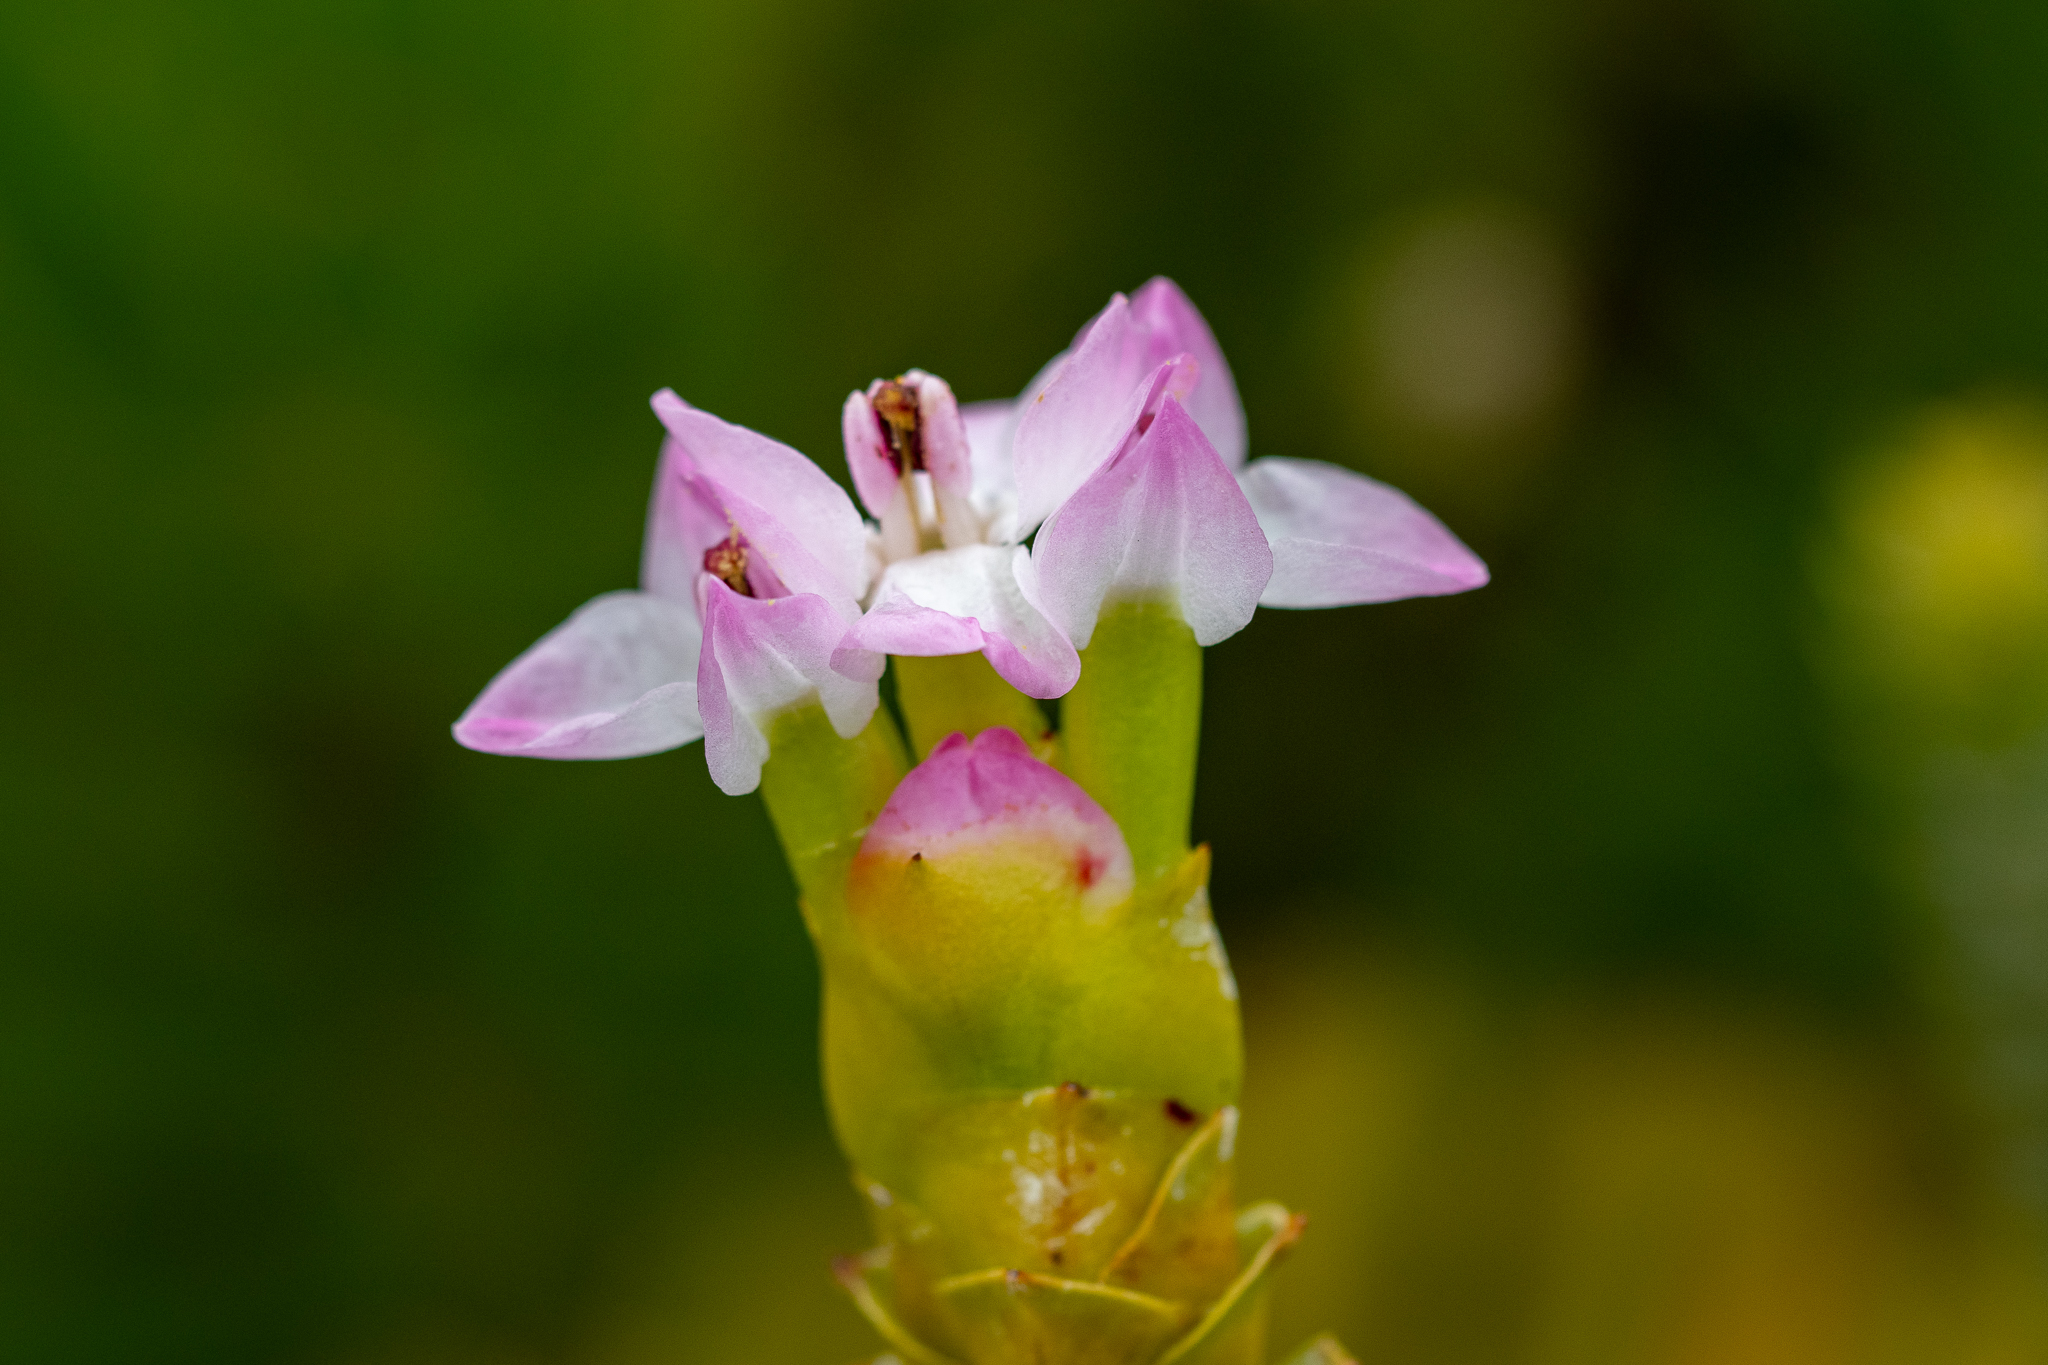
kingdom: Plantae
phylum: Tracheophyta
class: Magnoliopsida
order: Myrtales
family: Penaeaceae
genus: Saltera
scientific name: Saltera sarcocolla
